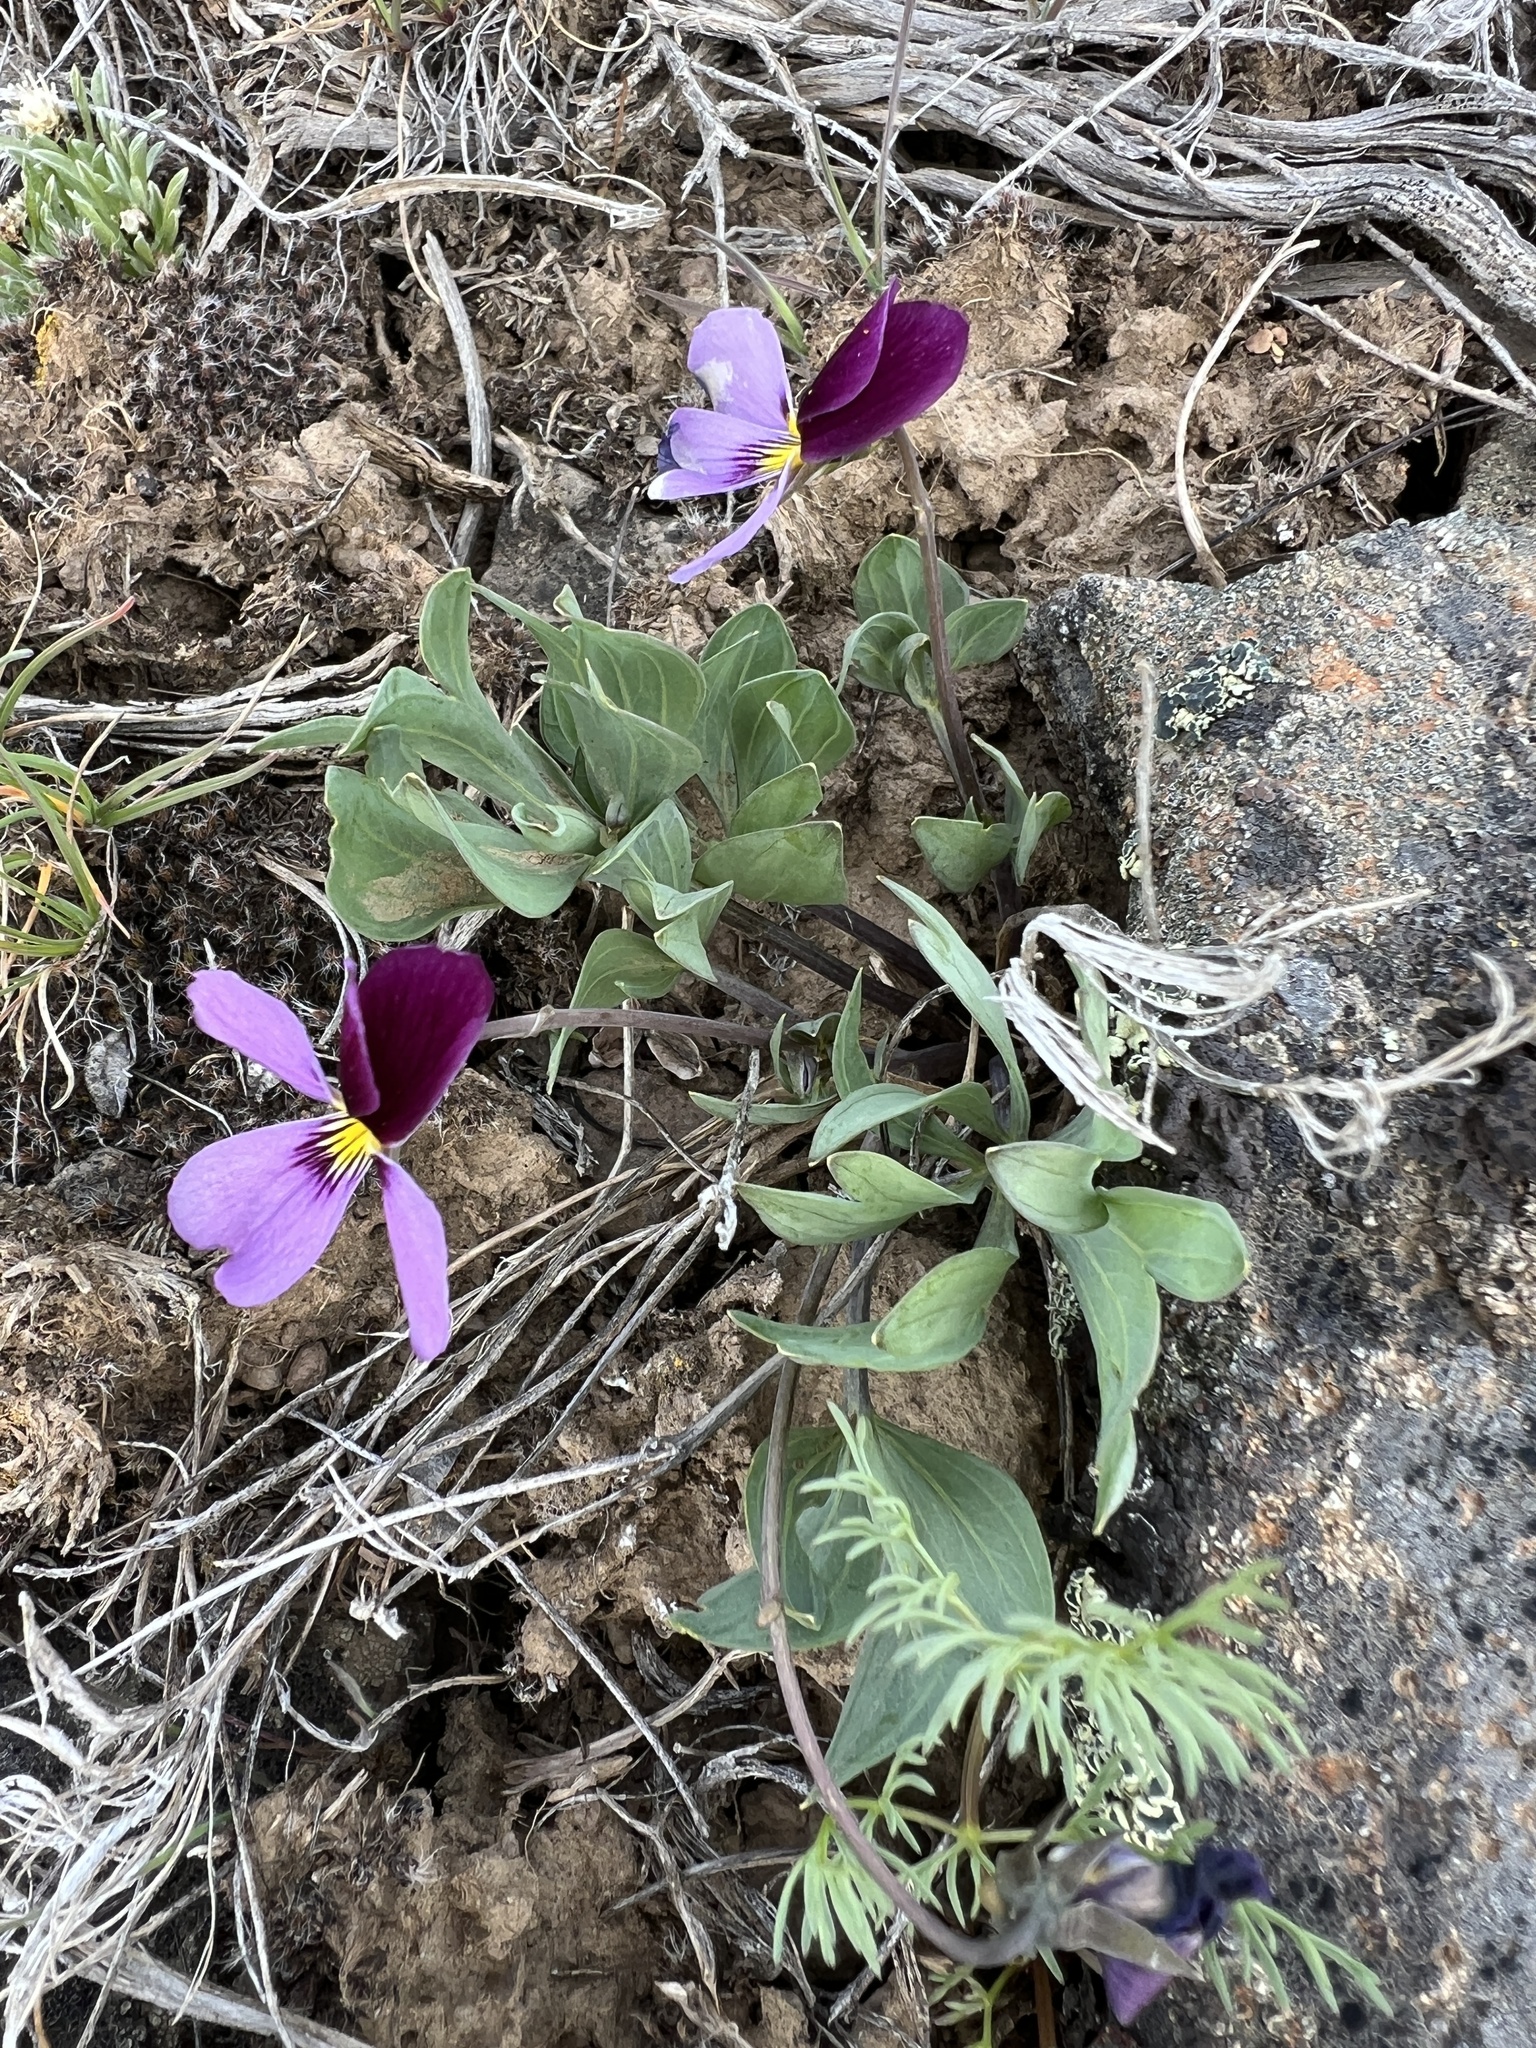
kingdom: Plantae
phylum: Tracheophyta
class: Magnoliopsida
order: Malpighiales
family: Violaceae
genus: Viola
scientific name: Viola trinervata
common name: Sagebrush violet
